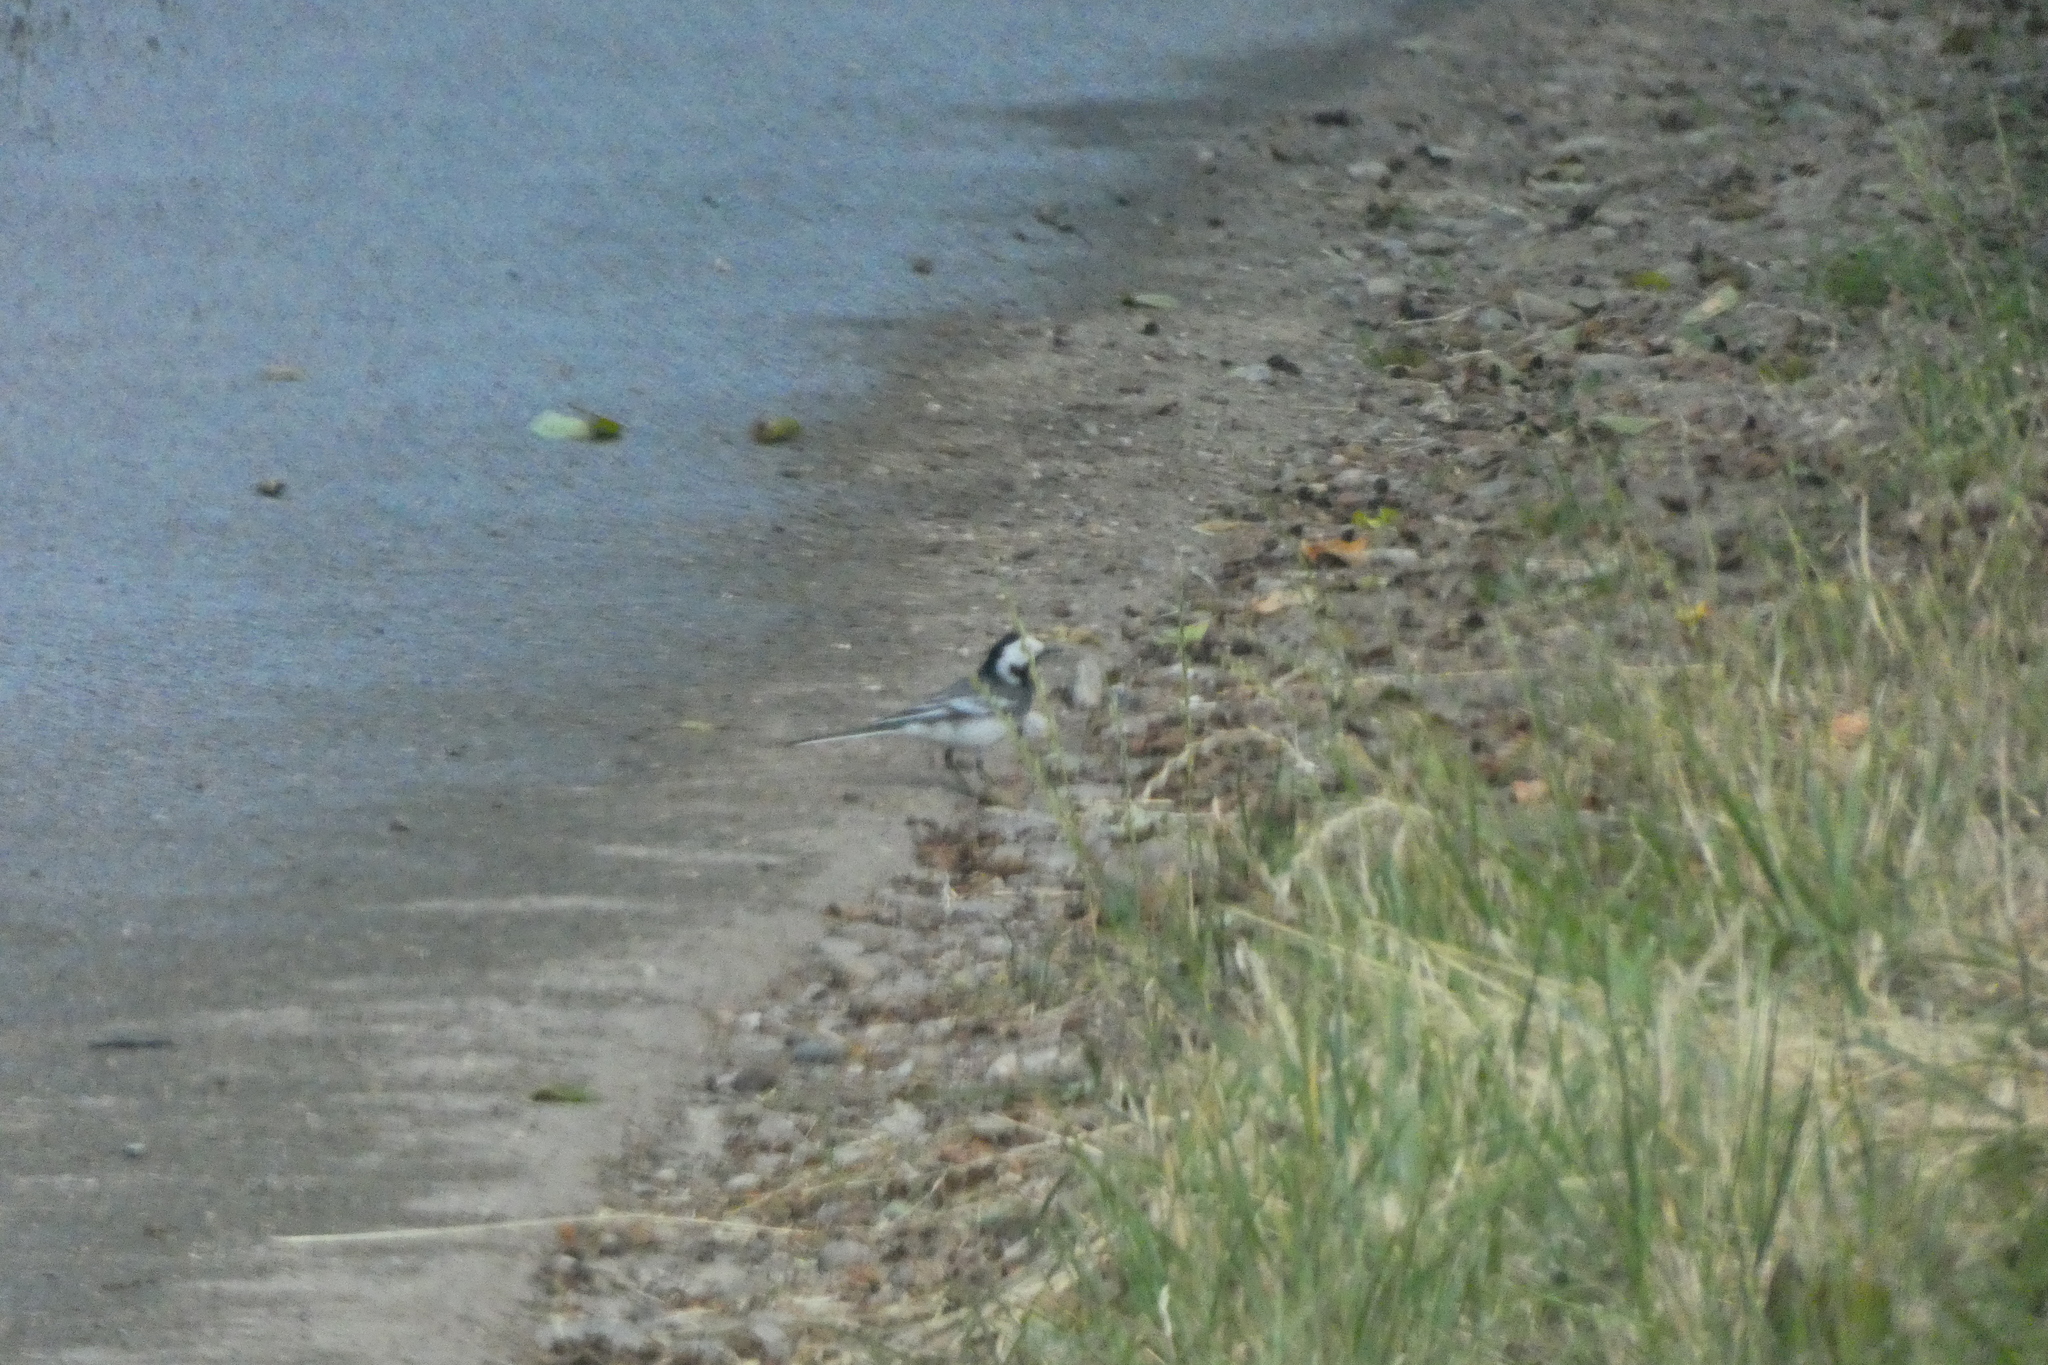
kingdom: Animalia
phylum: Chordata
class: Aves
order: Passeriformes
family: Motacillidae
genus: Motacilla
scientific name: Motacilla alba
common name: White wagtail
